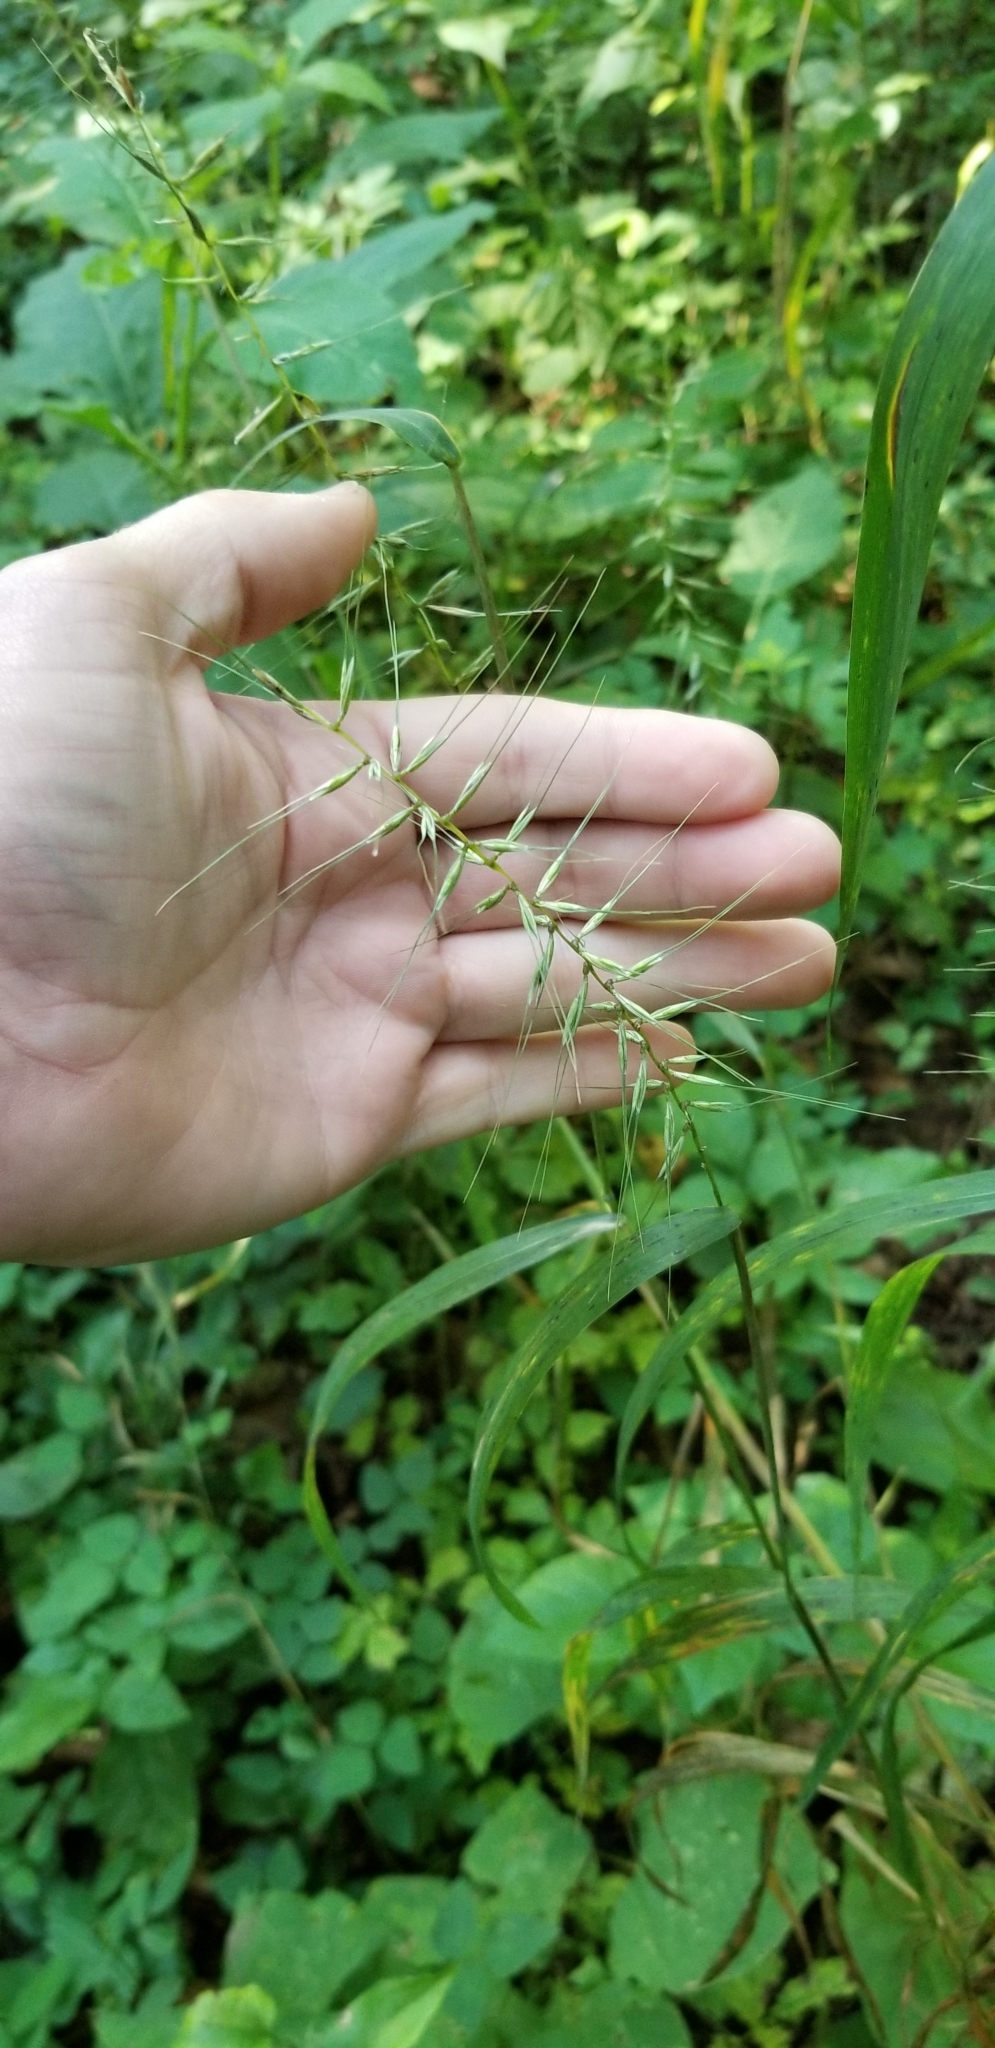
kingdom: Plantae
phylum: Tracheophyta
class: Liliopsida
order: Poales
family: Poaceae
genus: Elymus
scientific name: Elymus hystrix
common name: Bottlebrush grass
